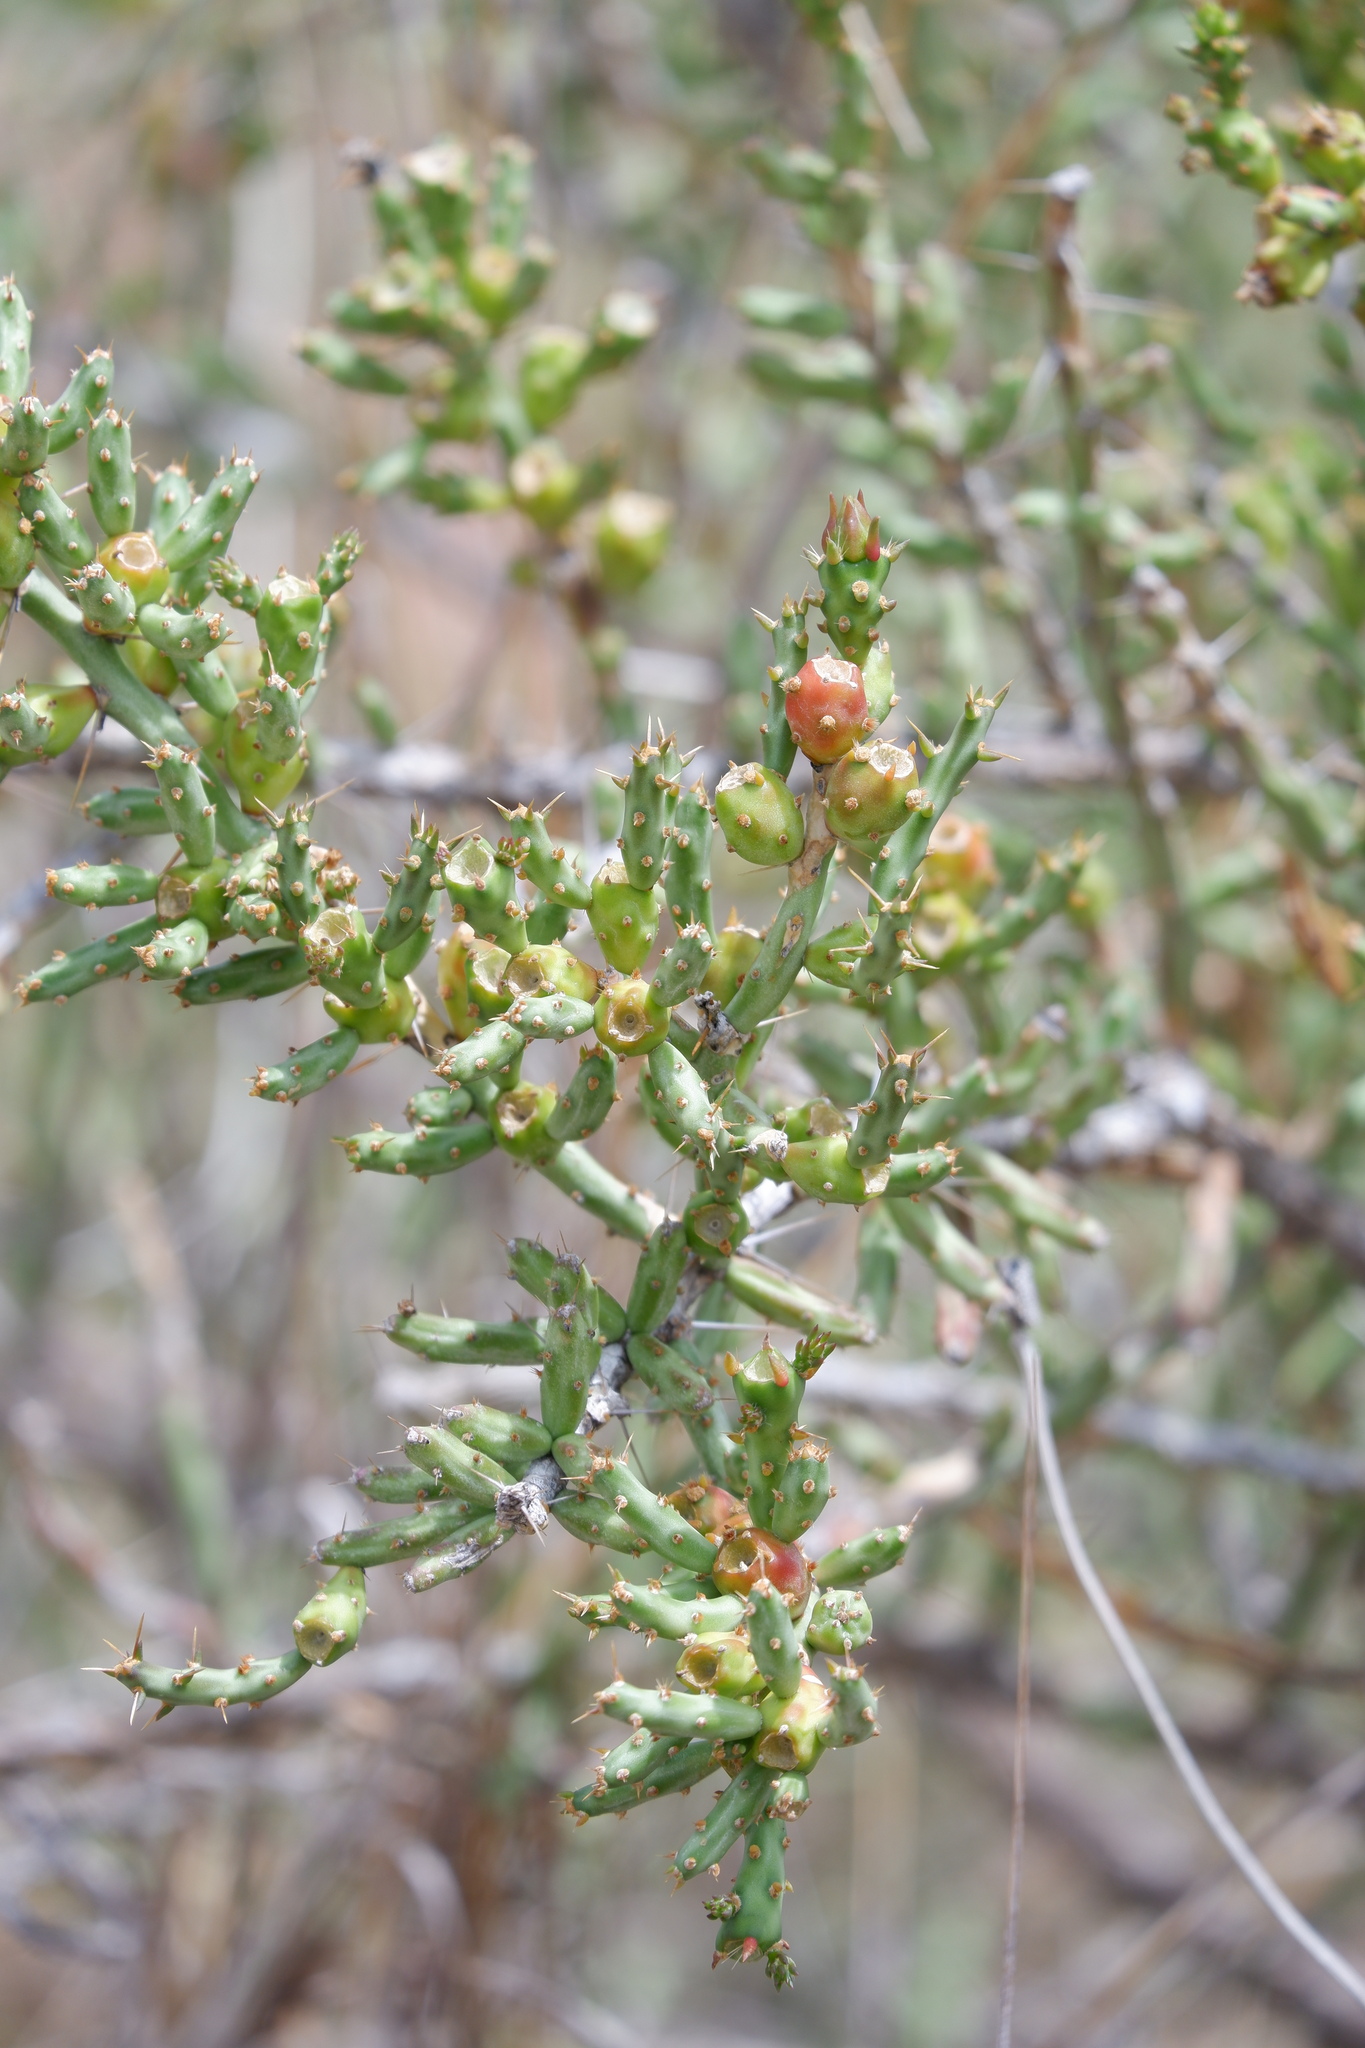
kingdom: Plantae
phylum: Tracheophyta
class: Magnoliopsida
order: Caryophyllales
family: Cactaceae
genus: Cylindropuntia
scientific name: Cylindropuntia leptocaulis
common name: Christmas cactus
